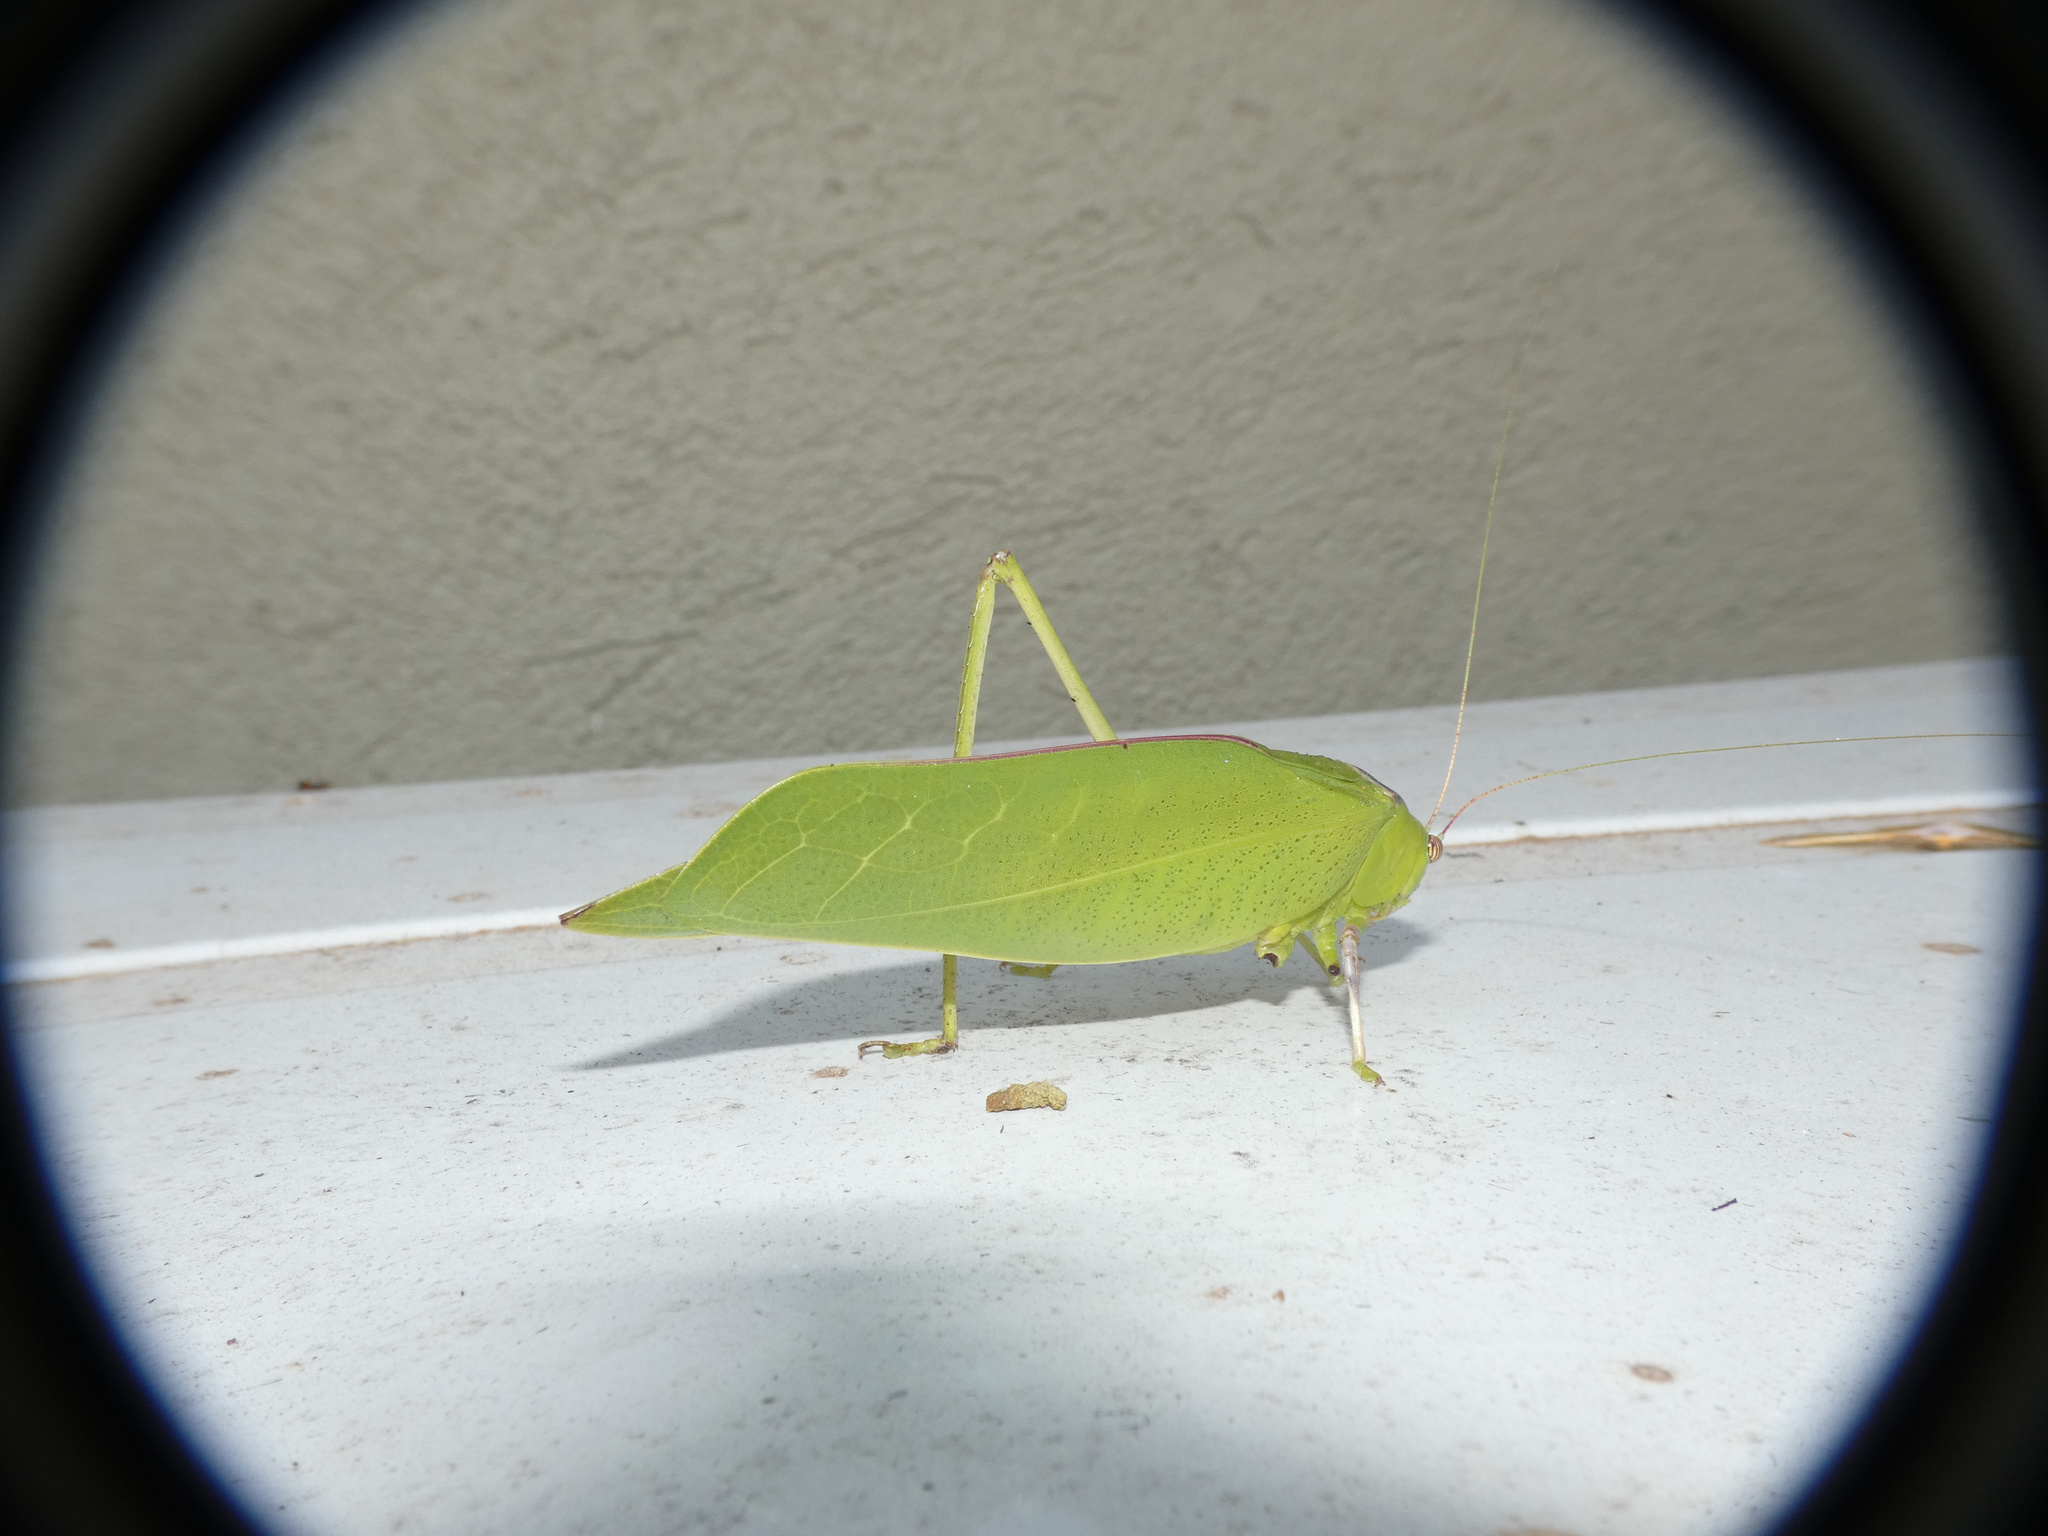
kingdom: Animalia
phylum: Arthropoda
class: Insecta
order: Orthoptera
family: Tettigoniidae
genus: Arantia
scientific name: Arantia fasciata
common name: Giant leaf katydid
